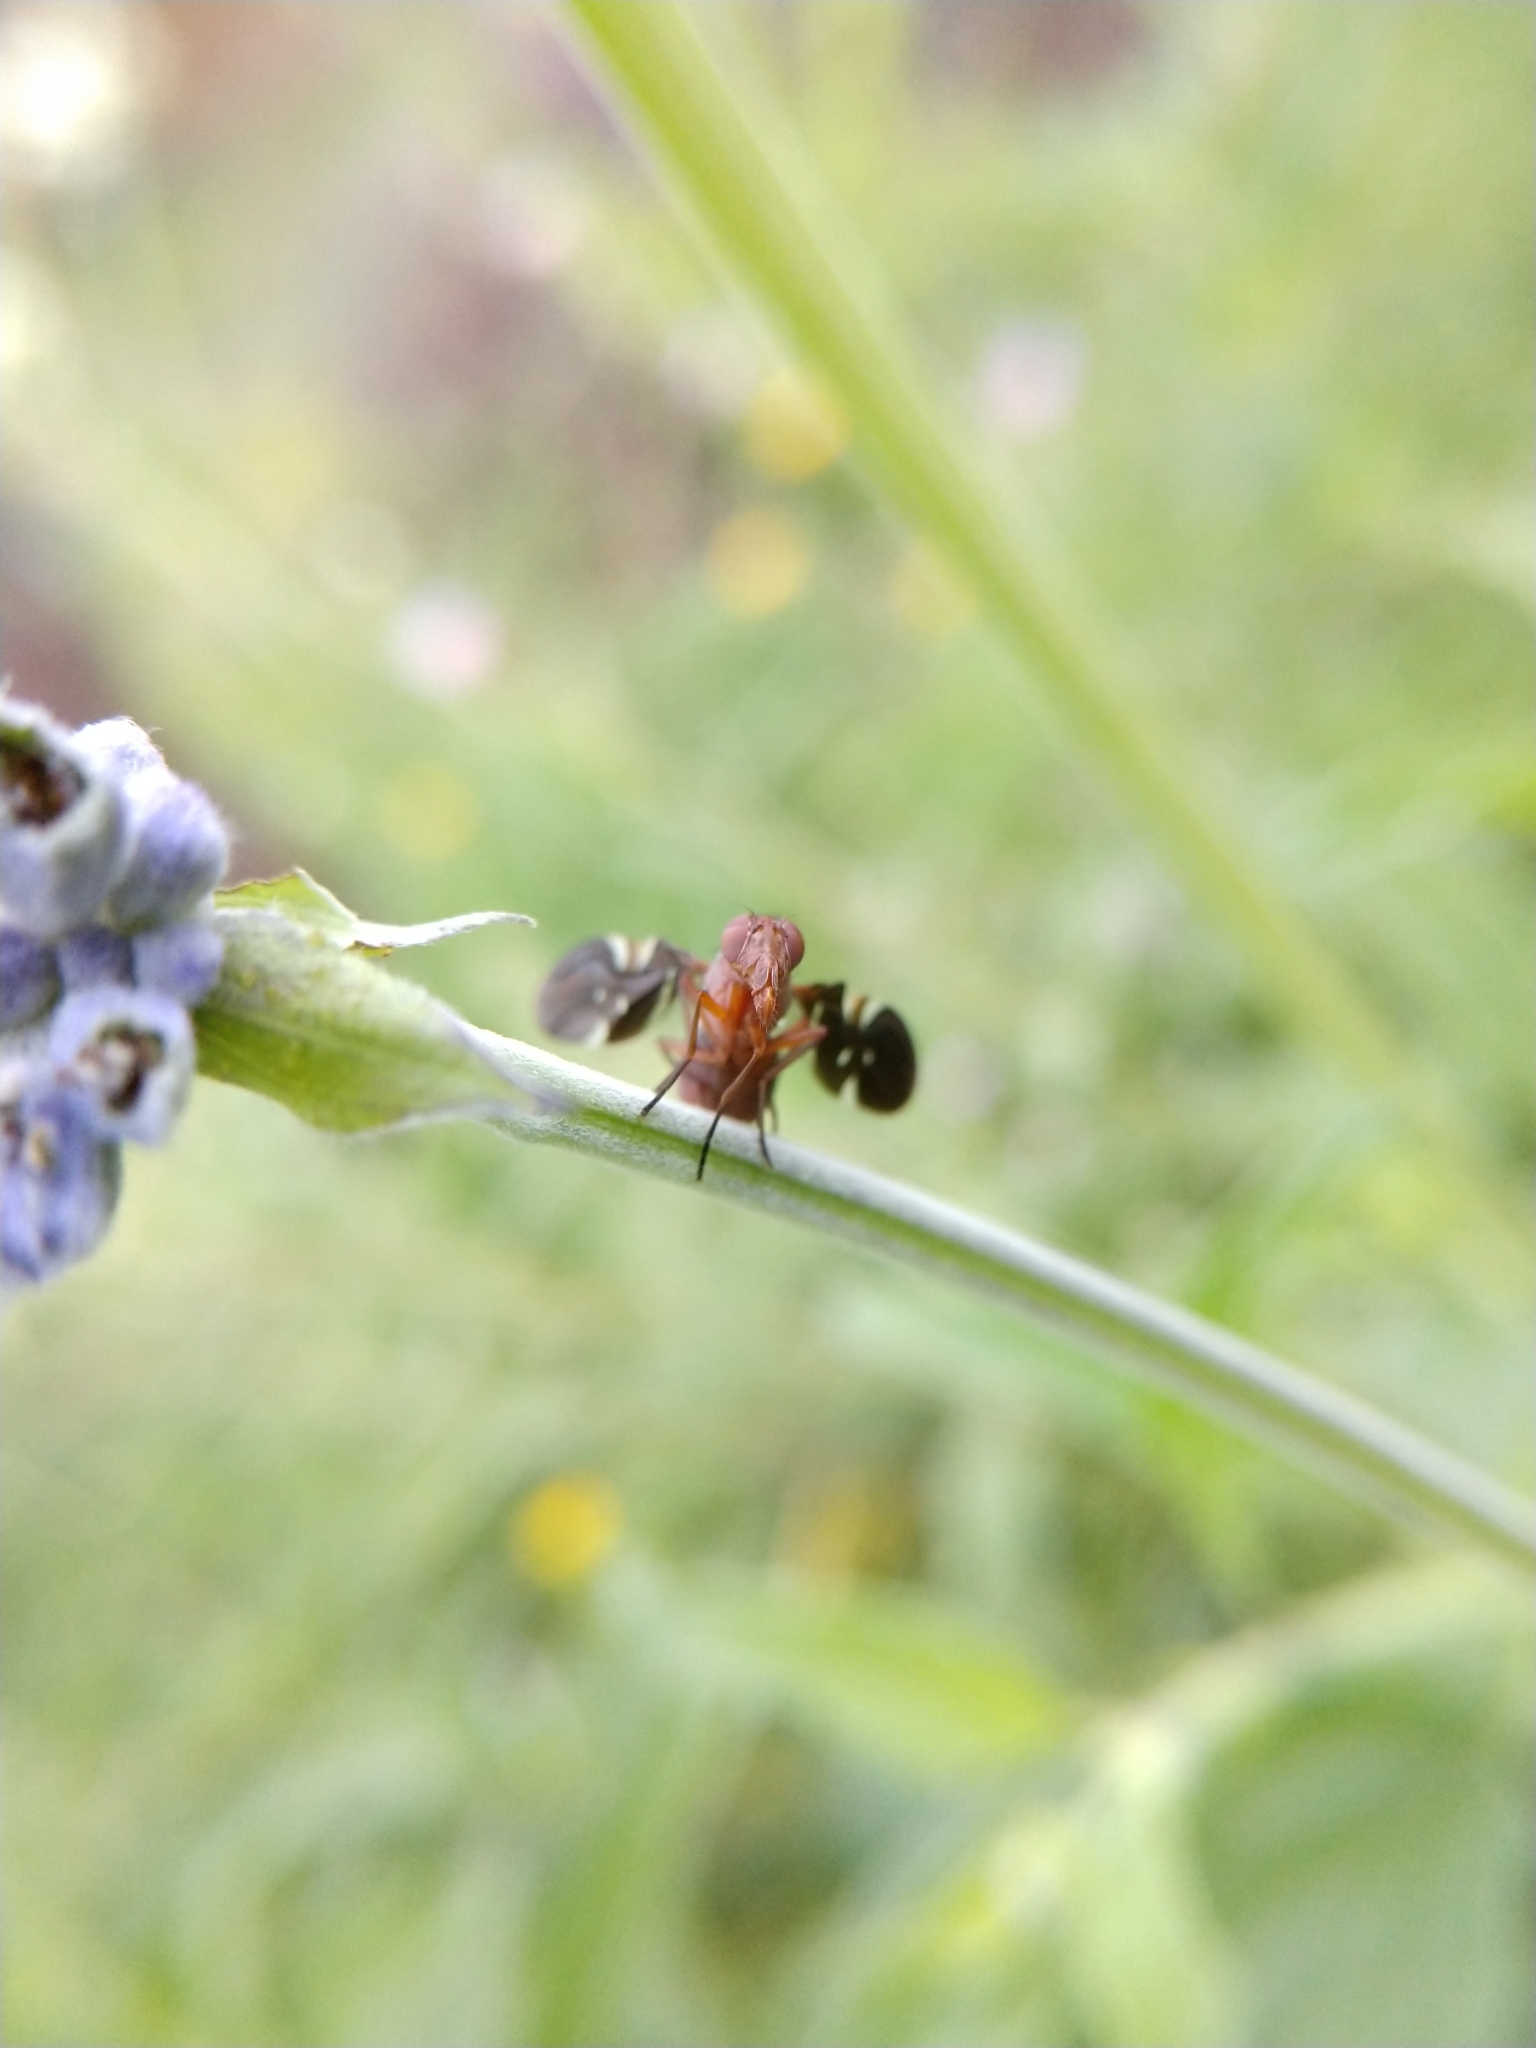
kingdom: Animalia
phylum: Arthropoda
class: Insecta
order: Diptera
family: Ulidiidae
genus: Delphinia
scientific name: Delphinia picta
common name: Common picture-winged fly
